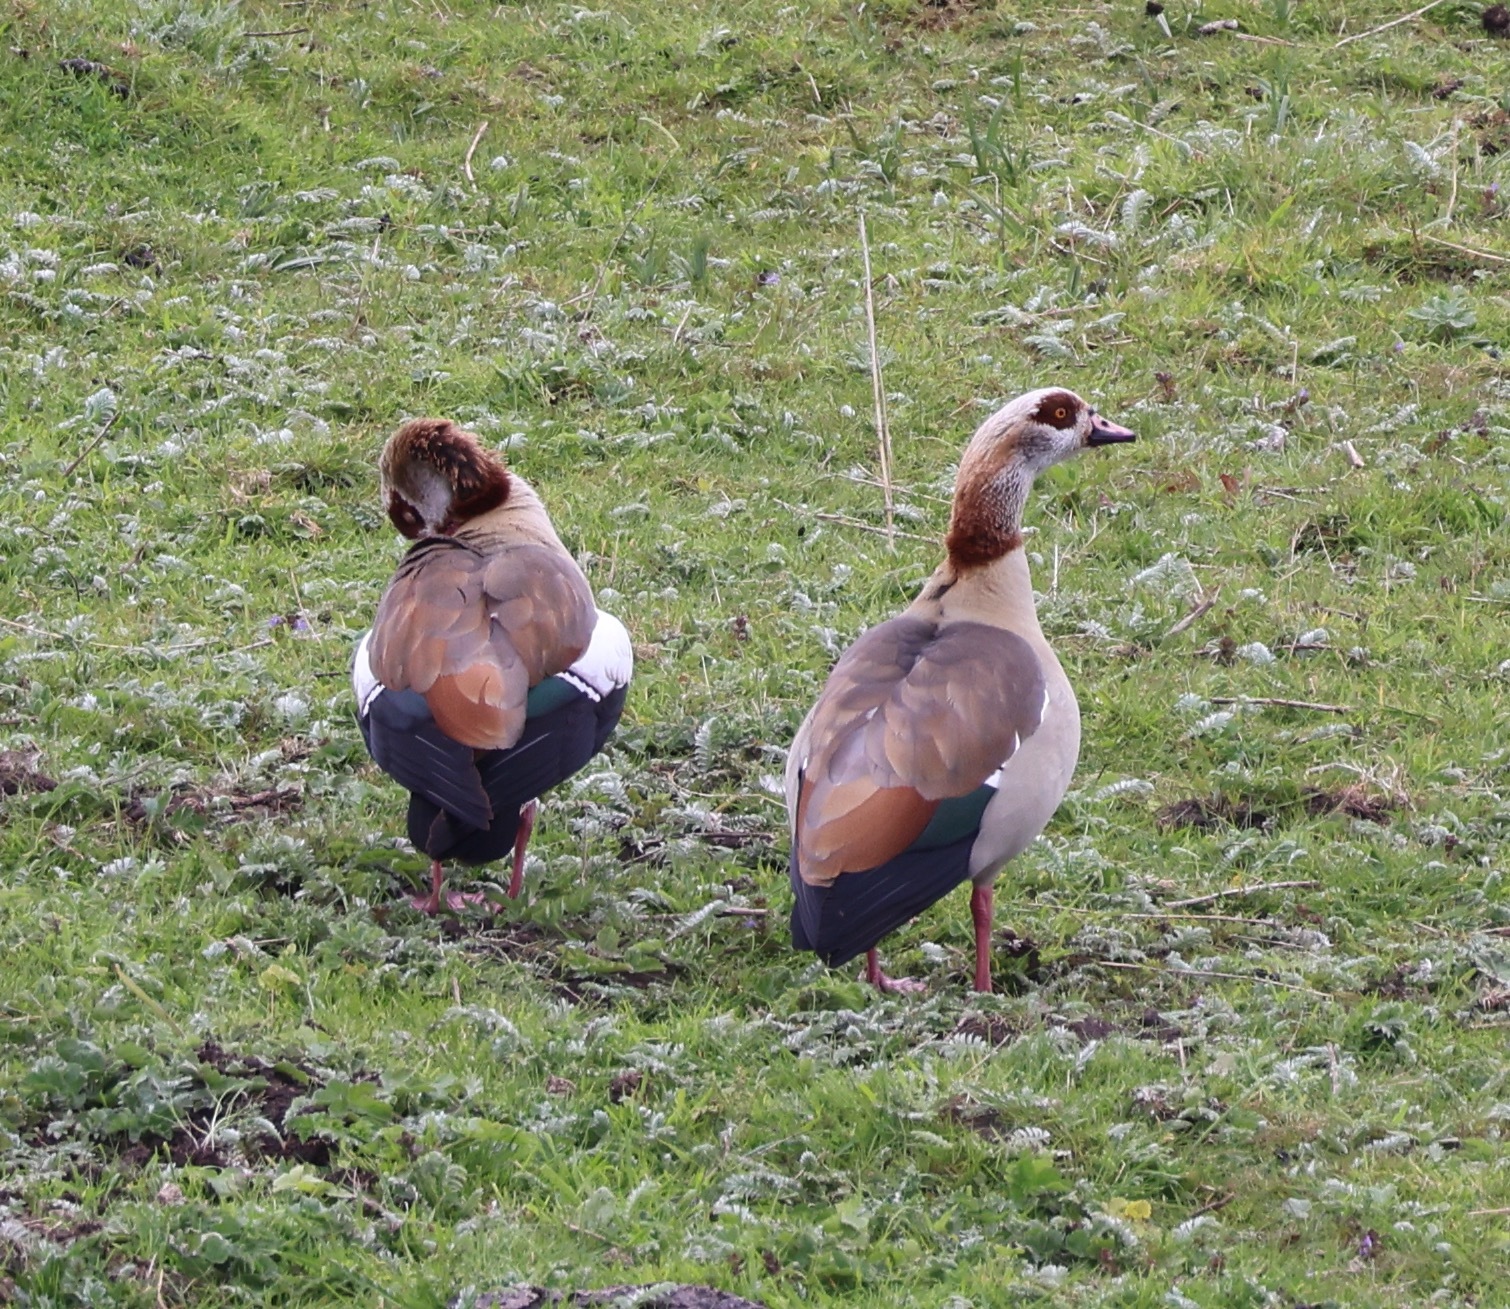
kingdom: Animalia
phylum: Chordata
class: Aves
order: Anseriformes
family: Anatidae
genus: Alopochen
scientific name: Alopochen aegyptiaca
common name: Egyptian goose
